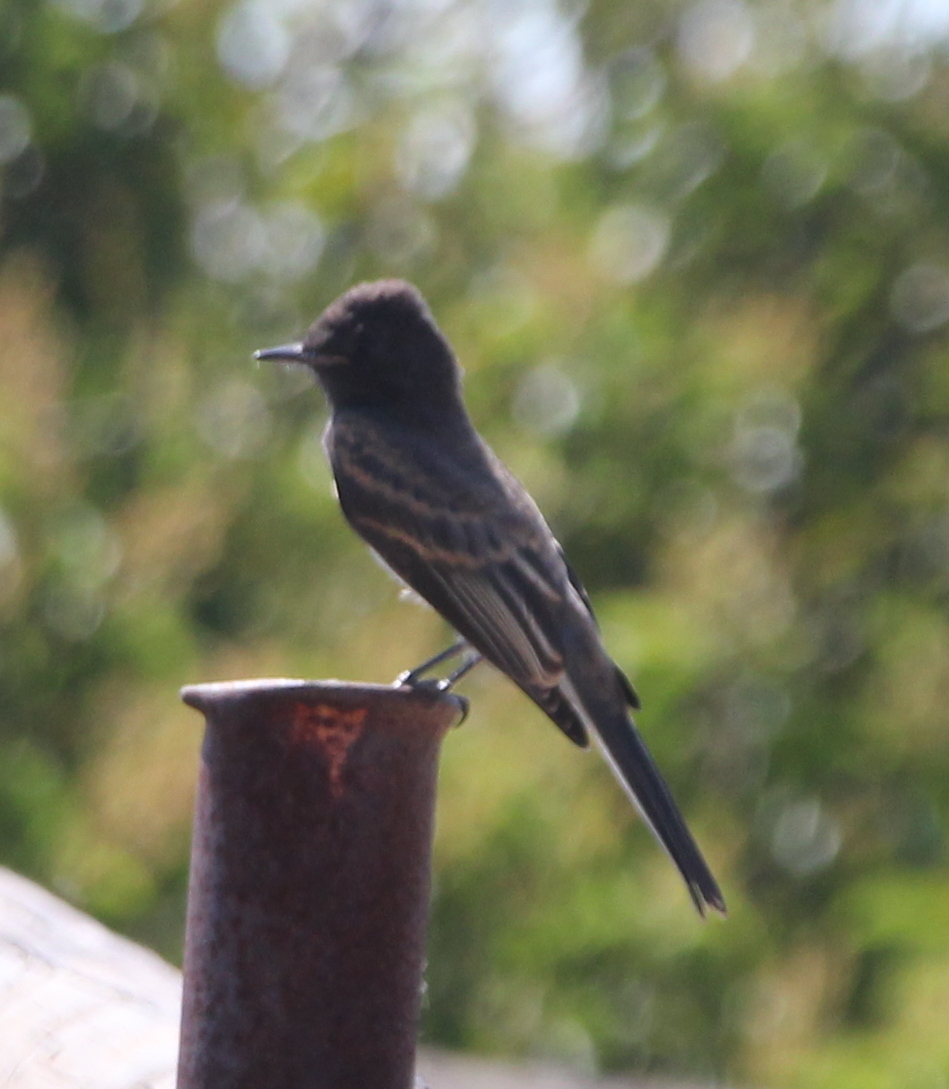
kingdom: Animalia
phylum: Chordata
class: Aves
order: Passeriformes
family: Tyrannidae
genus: Sayornis
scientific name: Sayornis nigricans
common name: Black phoebe
